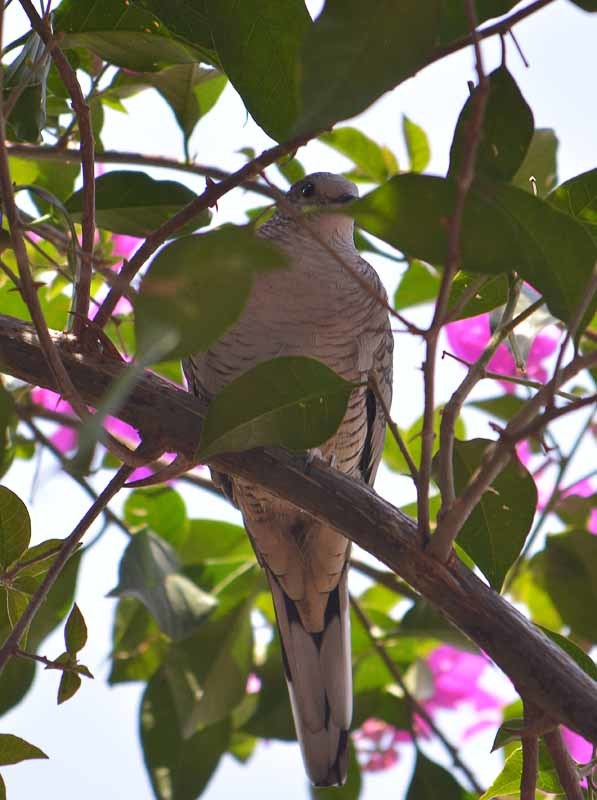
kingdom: Animalia
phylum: Chordata
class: Aves
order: Columbiformes
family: Columbidae
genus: Columbina
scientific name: Columbina inca
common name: Inca dove
